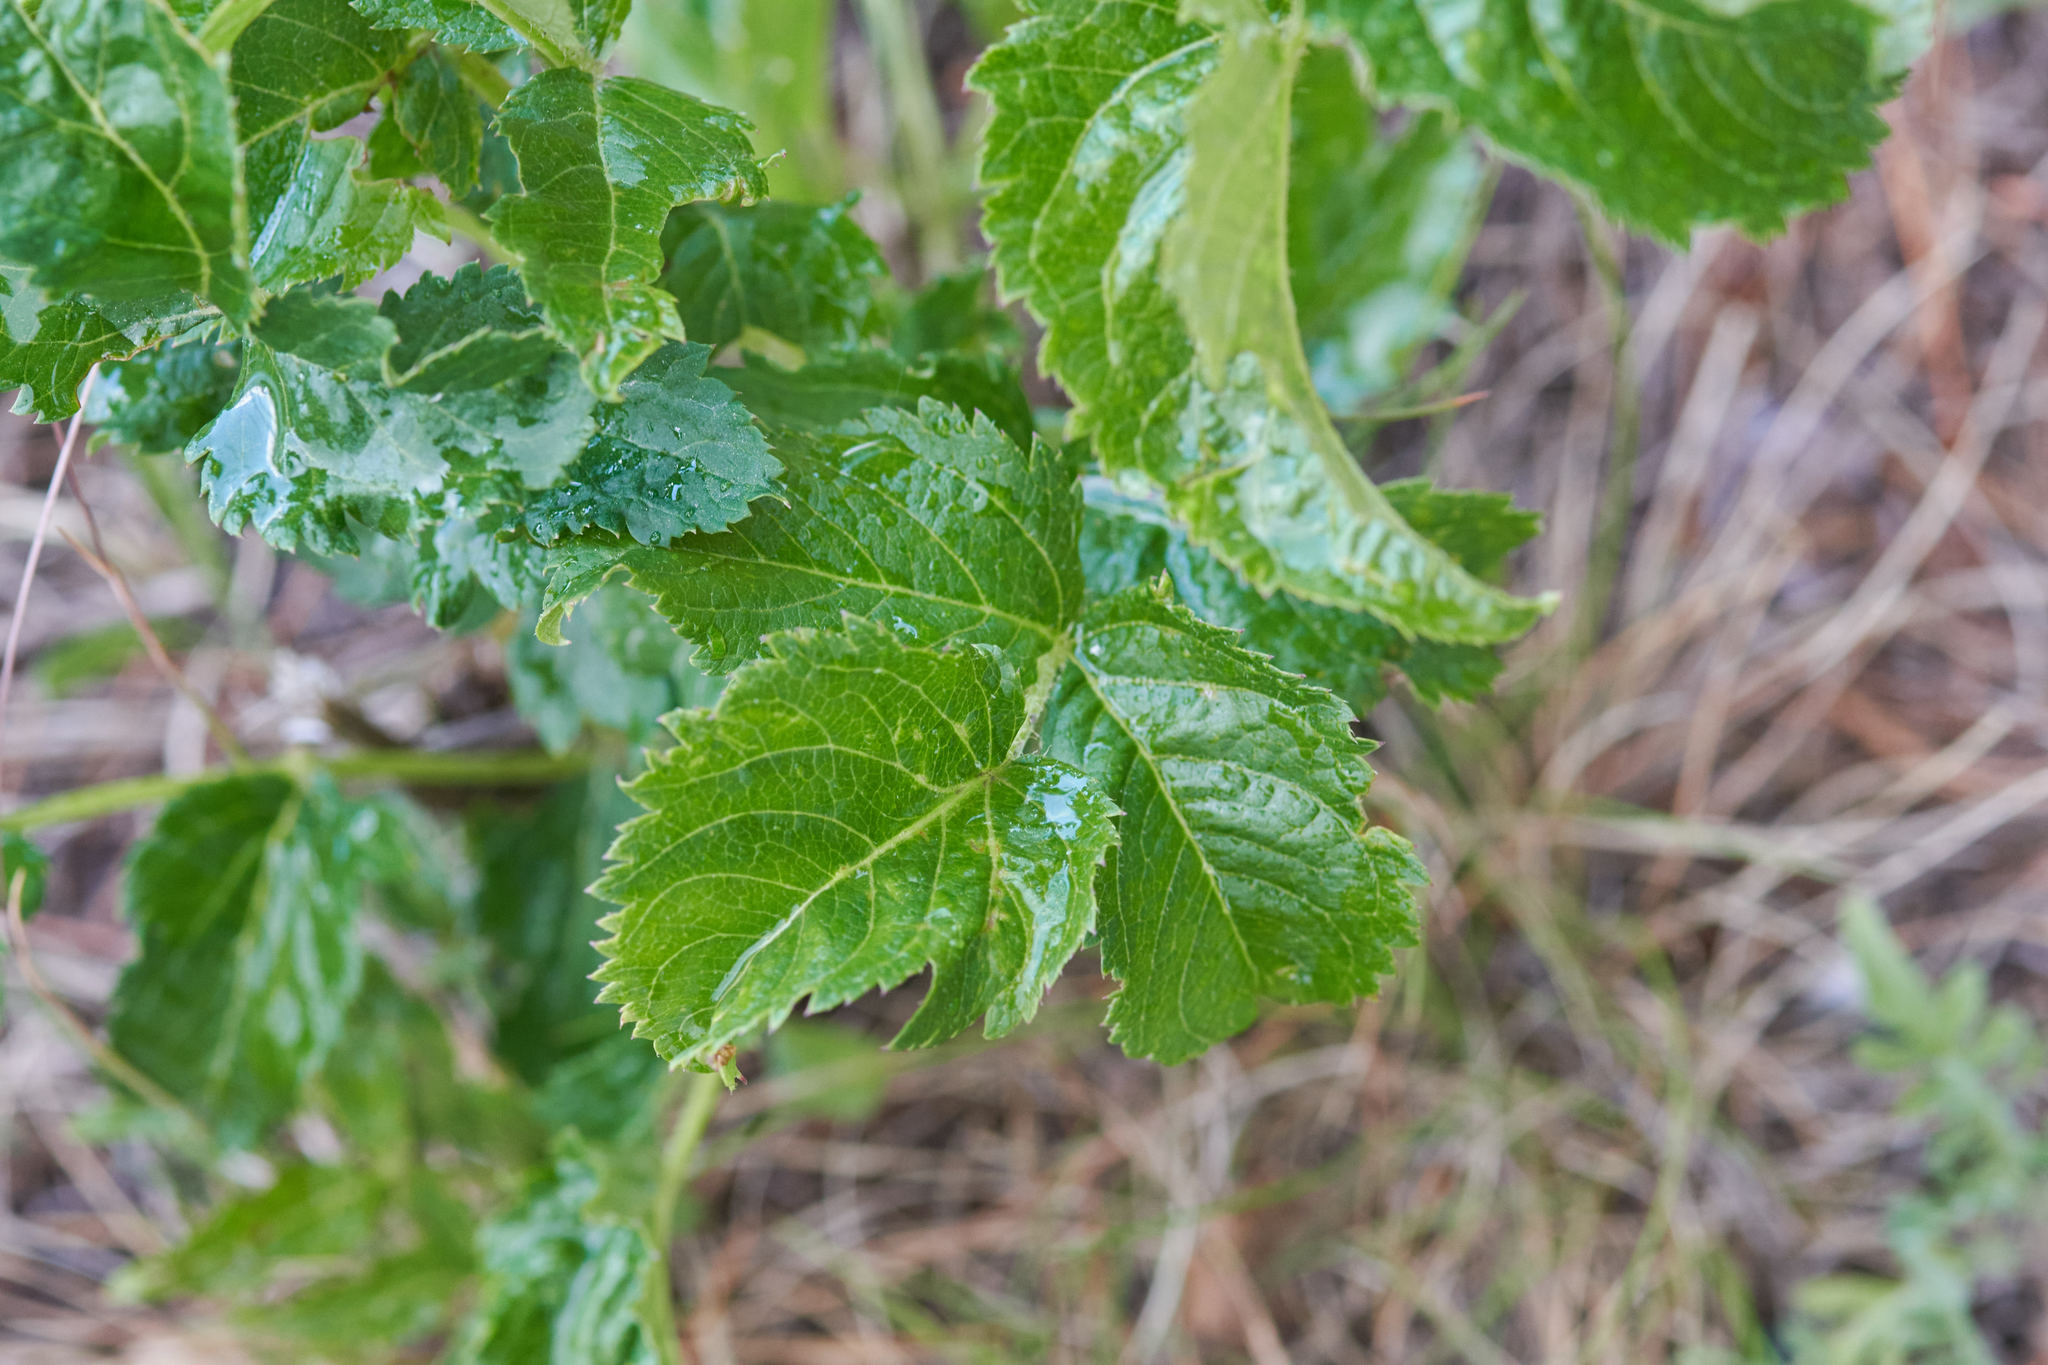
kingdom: Plantae
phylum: Tracheophyta
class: Magnoliopsida
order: Apiales
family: Araliaceae
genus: Aralia
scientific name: Aralia hispida
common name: Bristly sarsaparilla
